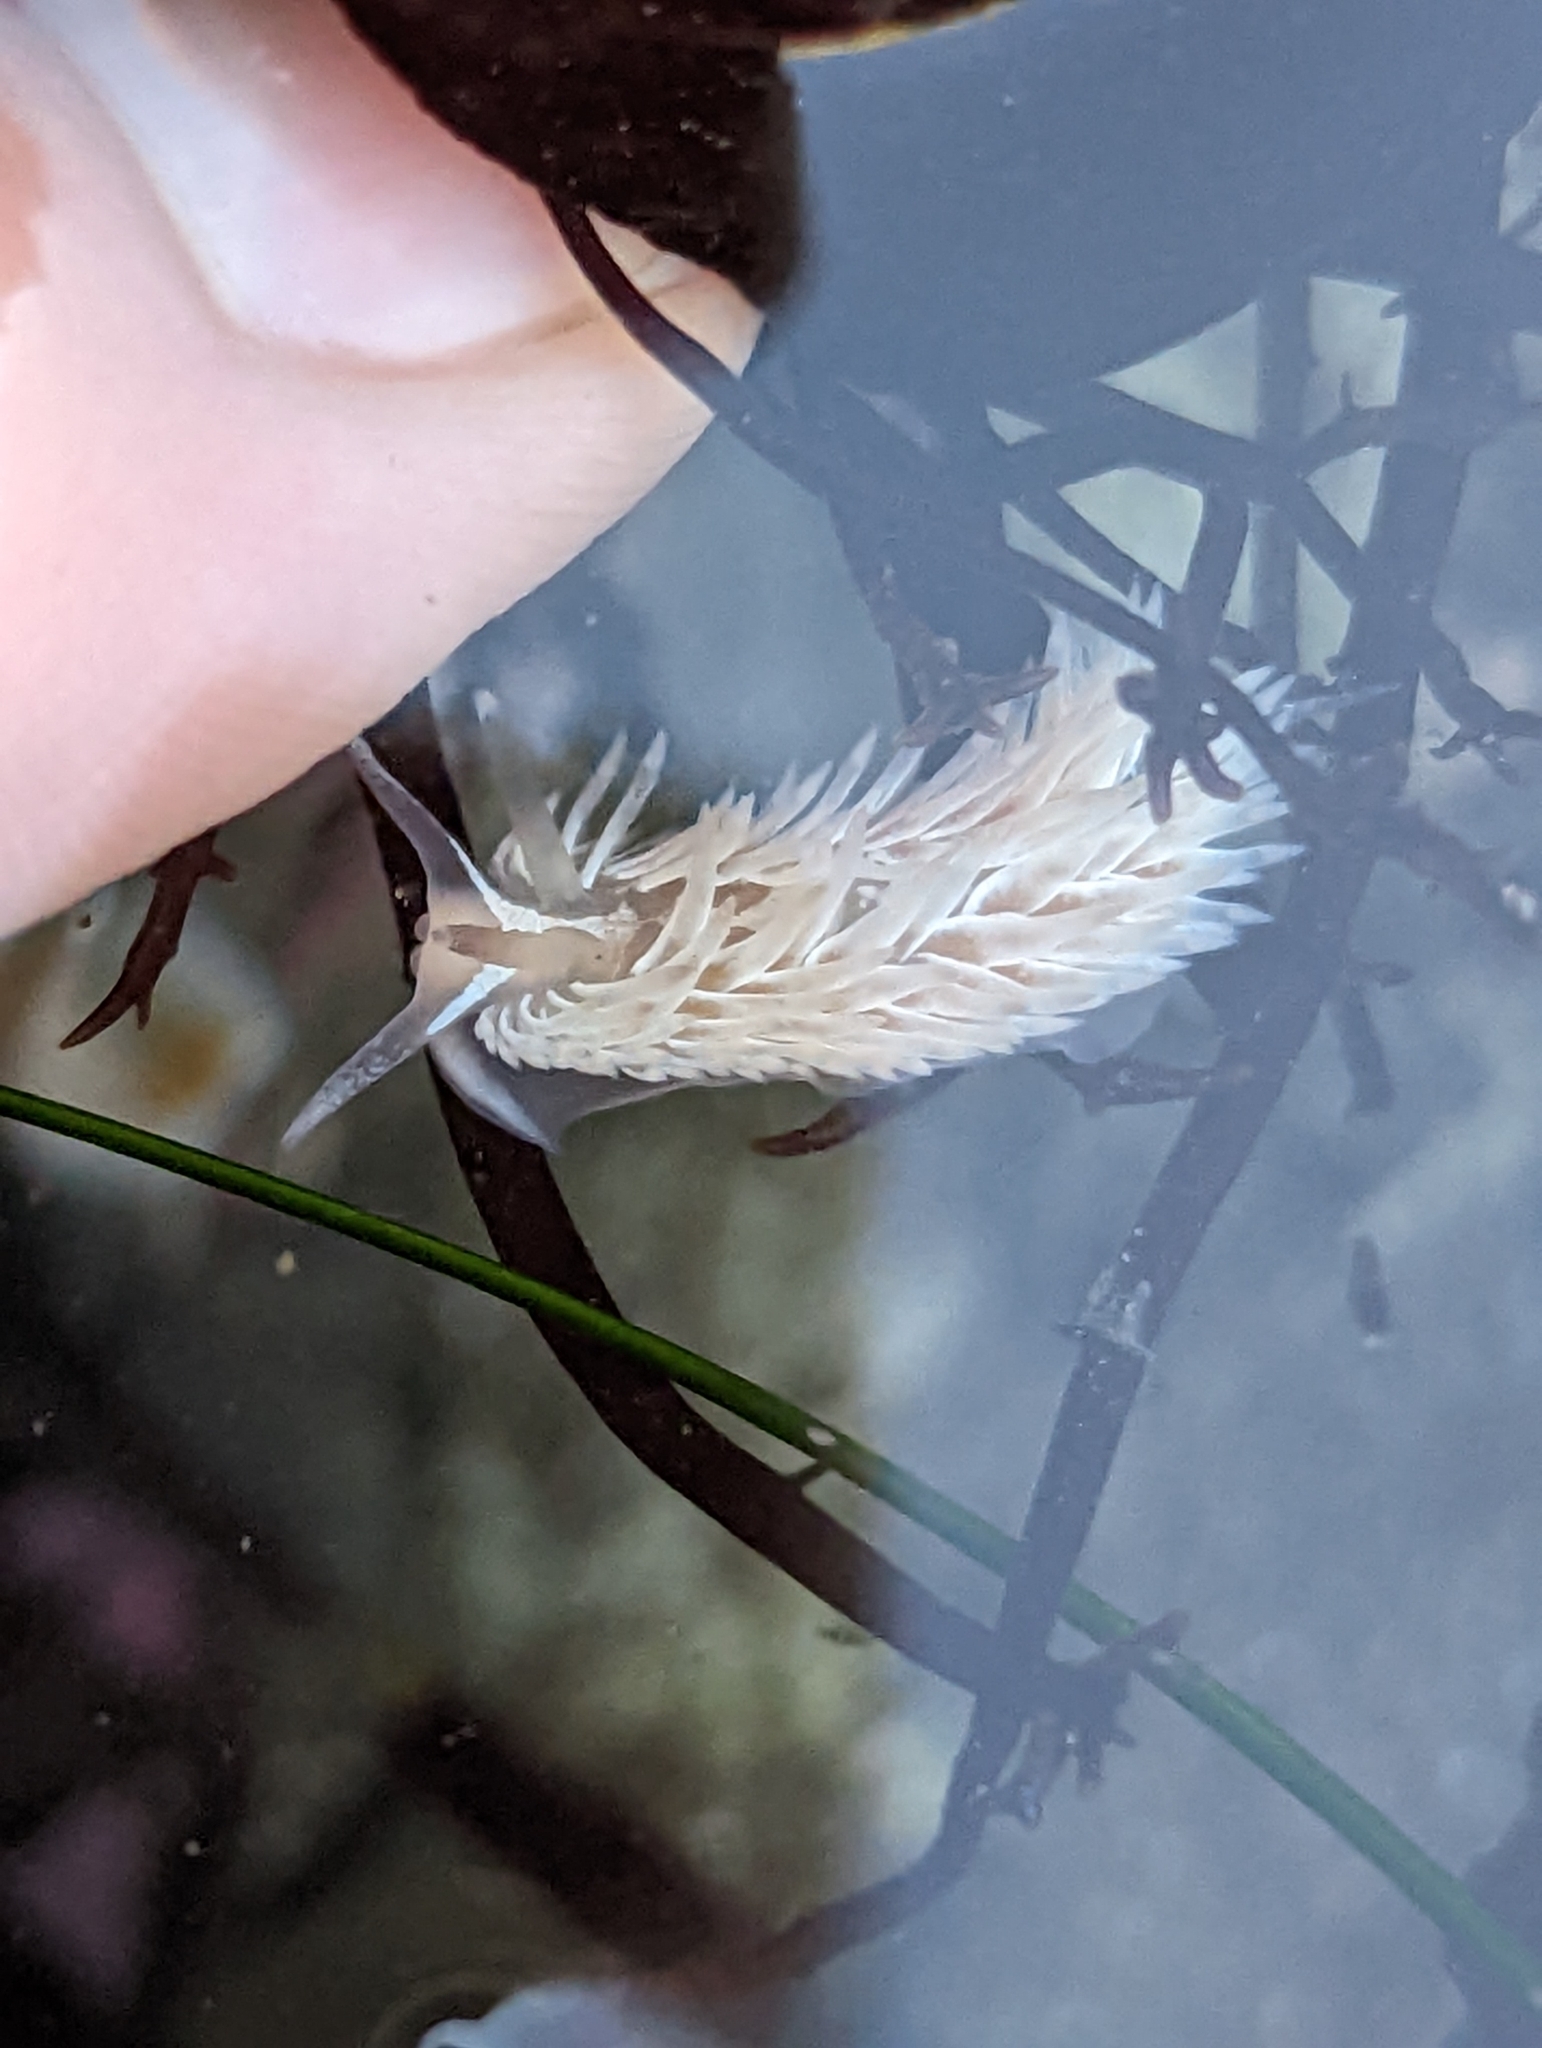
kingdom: Animalia
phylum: Mollusca
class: Gastropoda
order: Nudibranchia
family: Aeolidiidae
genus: Aeolidia
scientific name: Aeolidia loui
